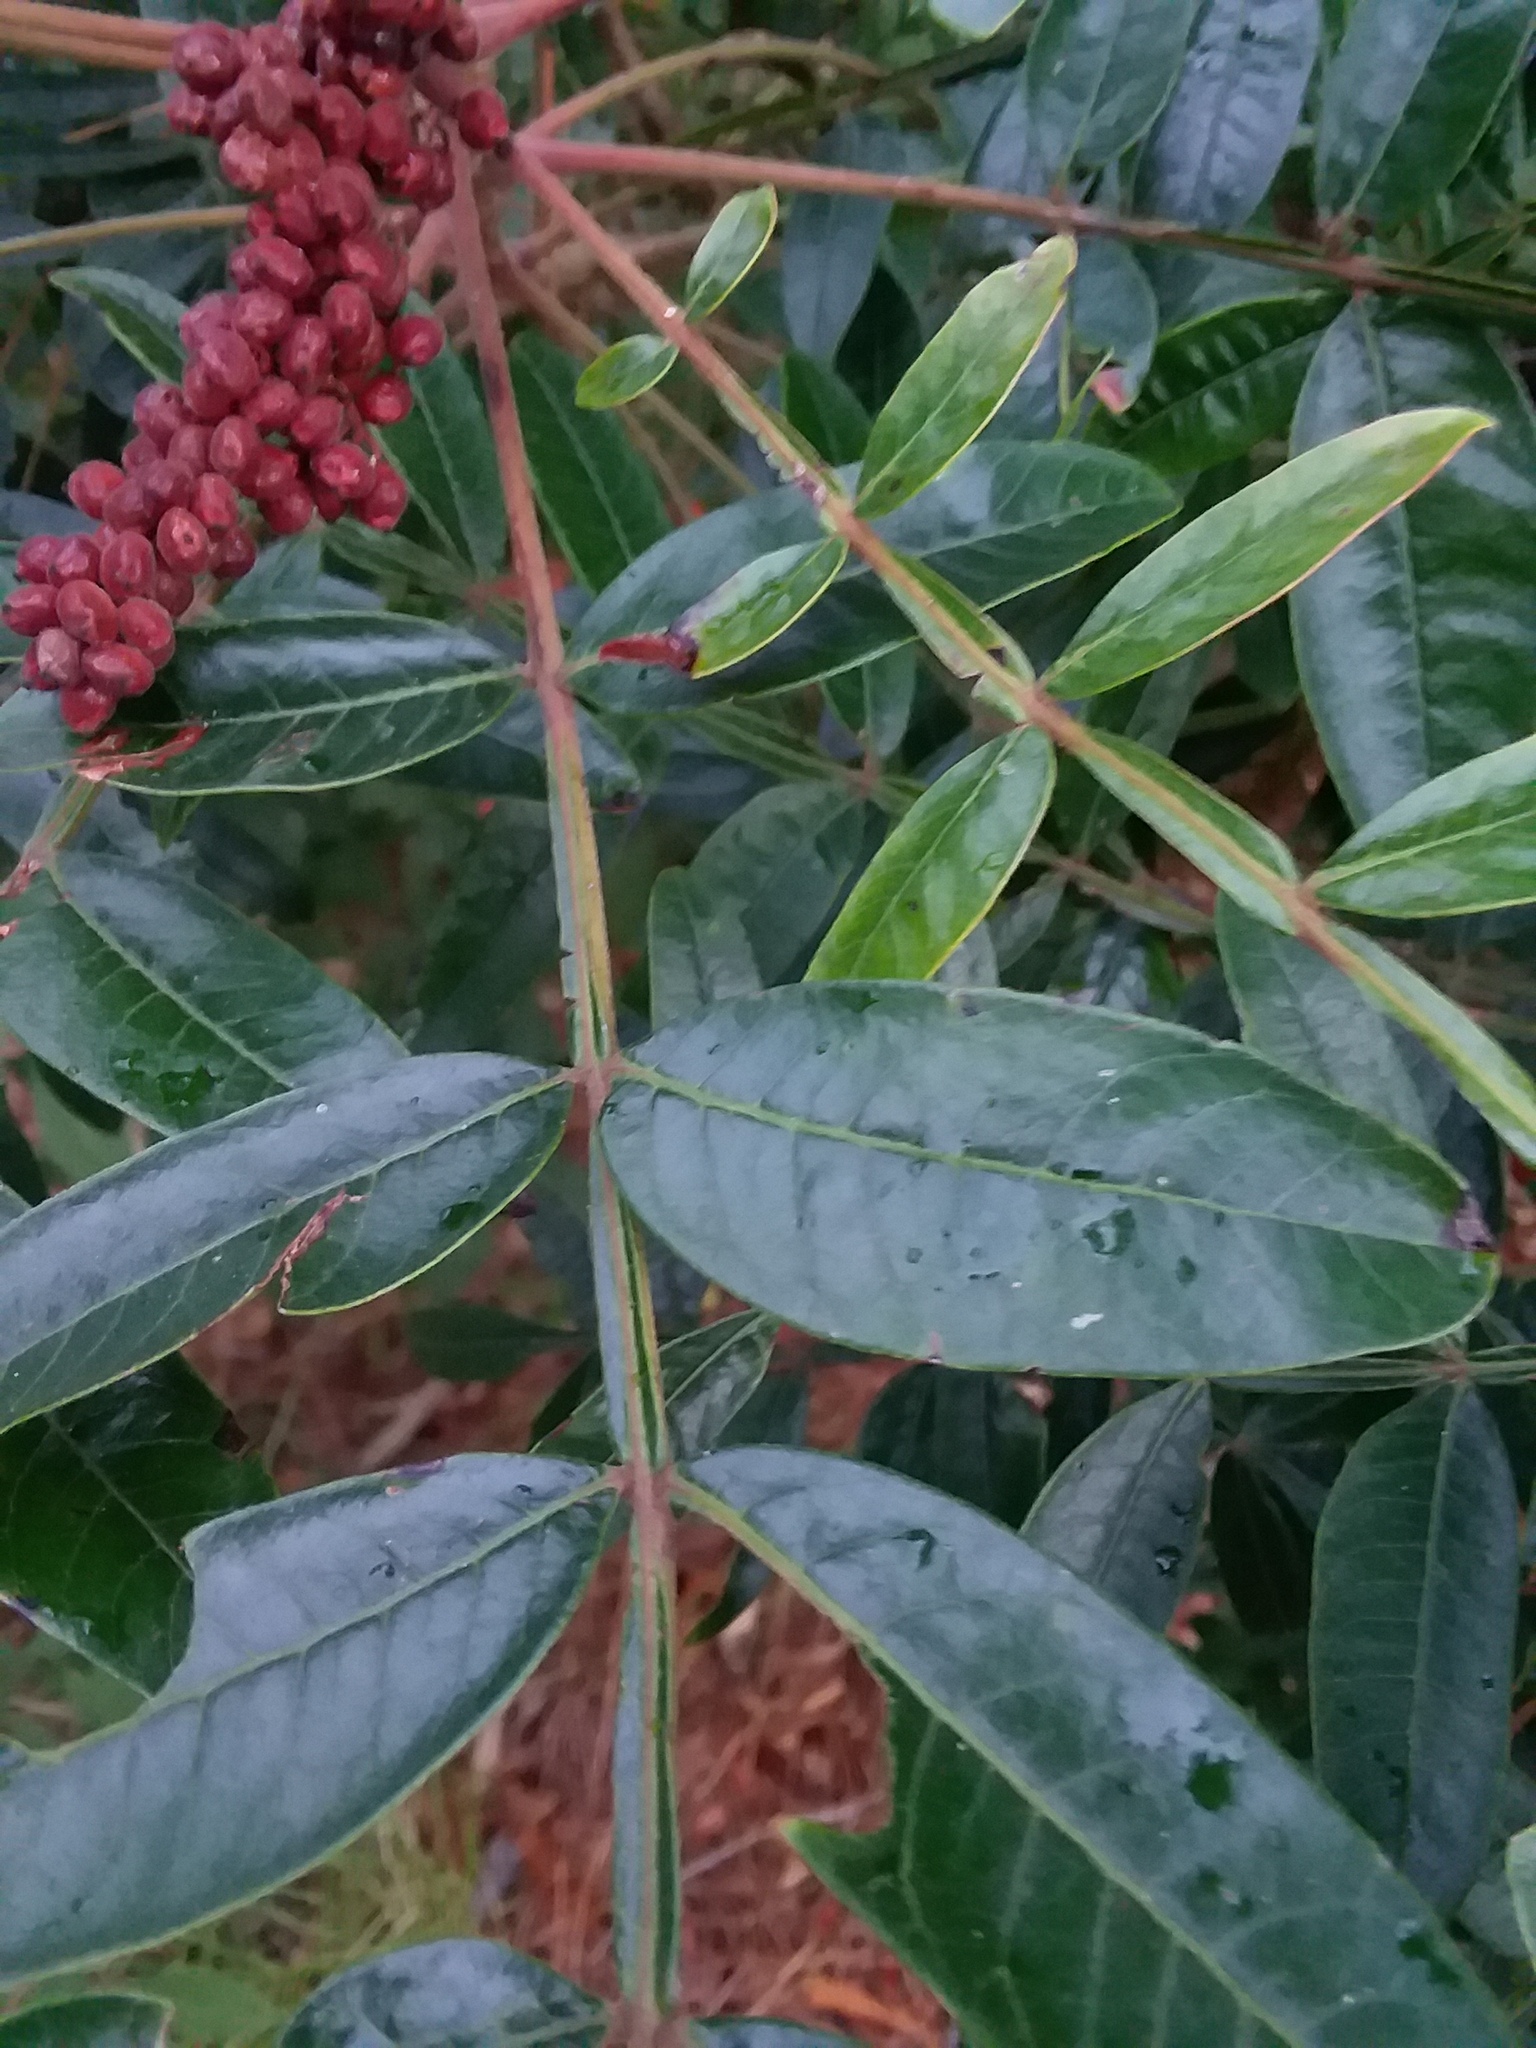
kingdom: Plantae
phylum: Tracheophyta
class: Magnoliopsida
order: Sapindales
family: Anacardiaceae
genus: Rhus
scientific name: Rhus copallina
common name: Shining sumac
